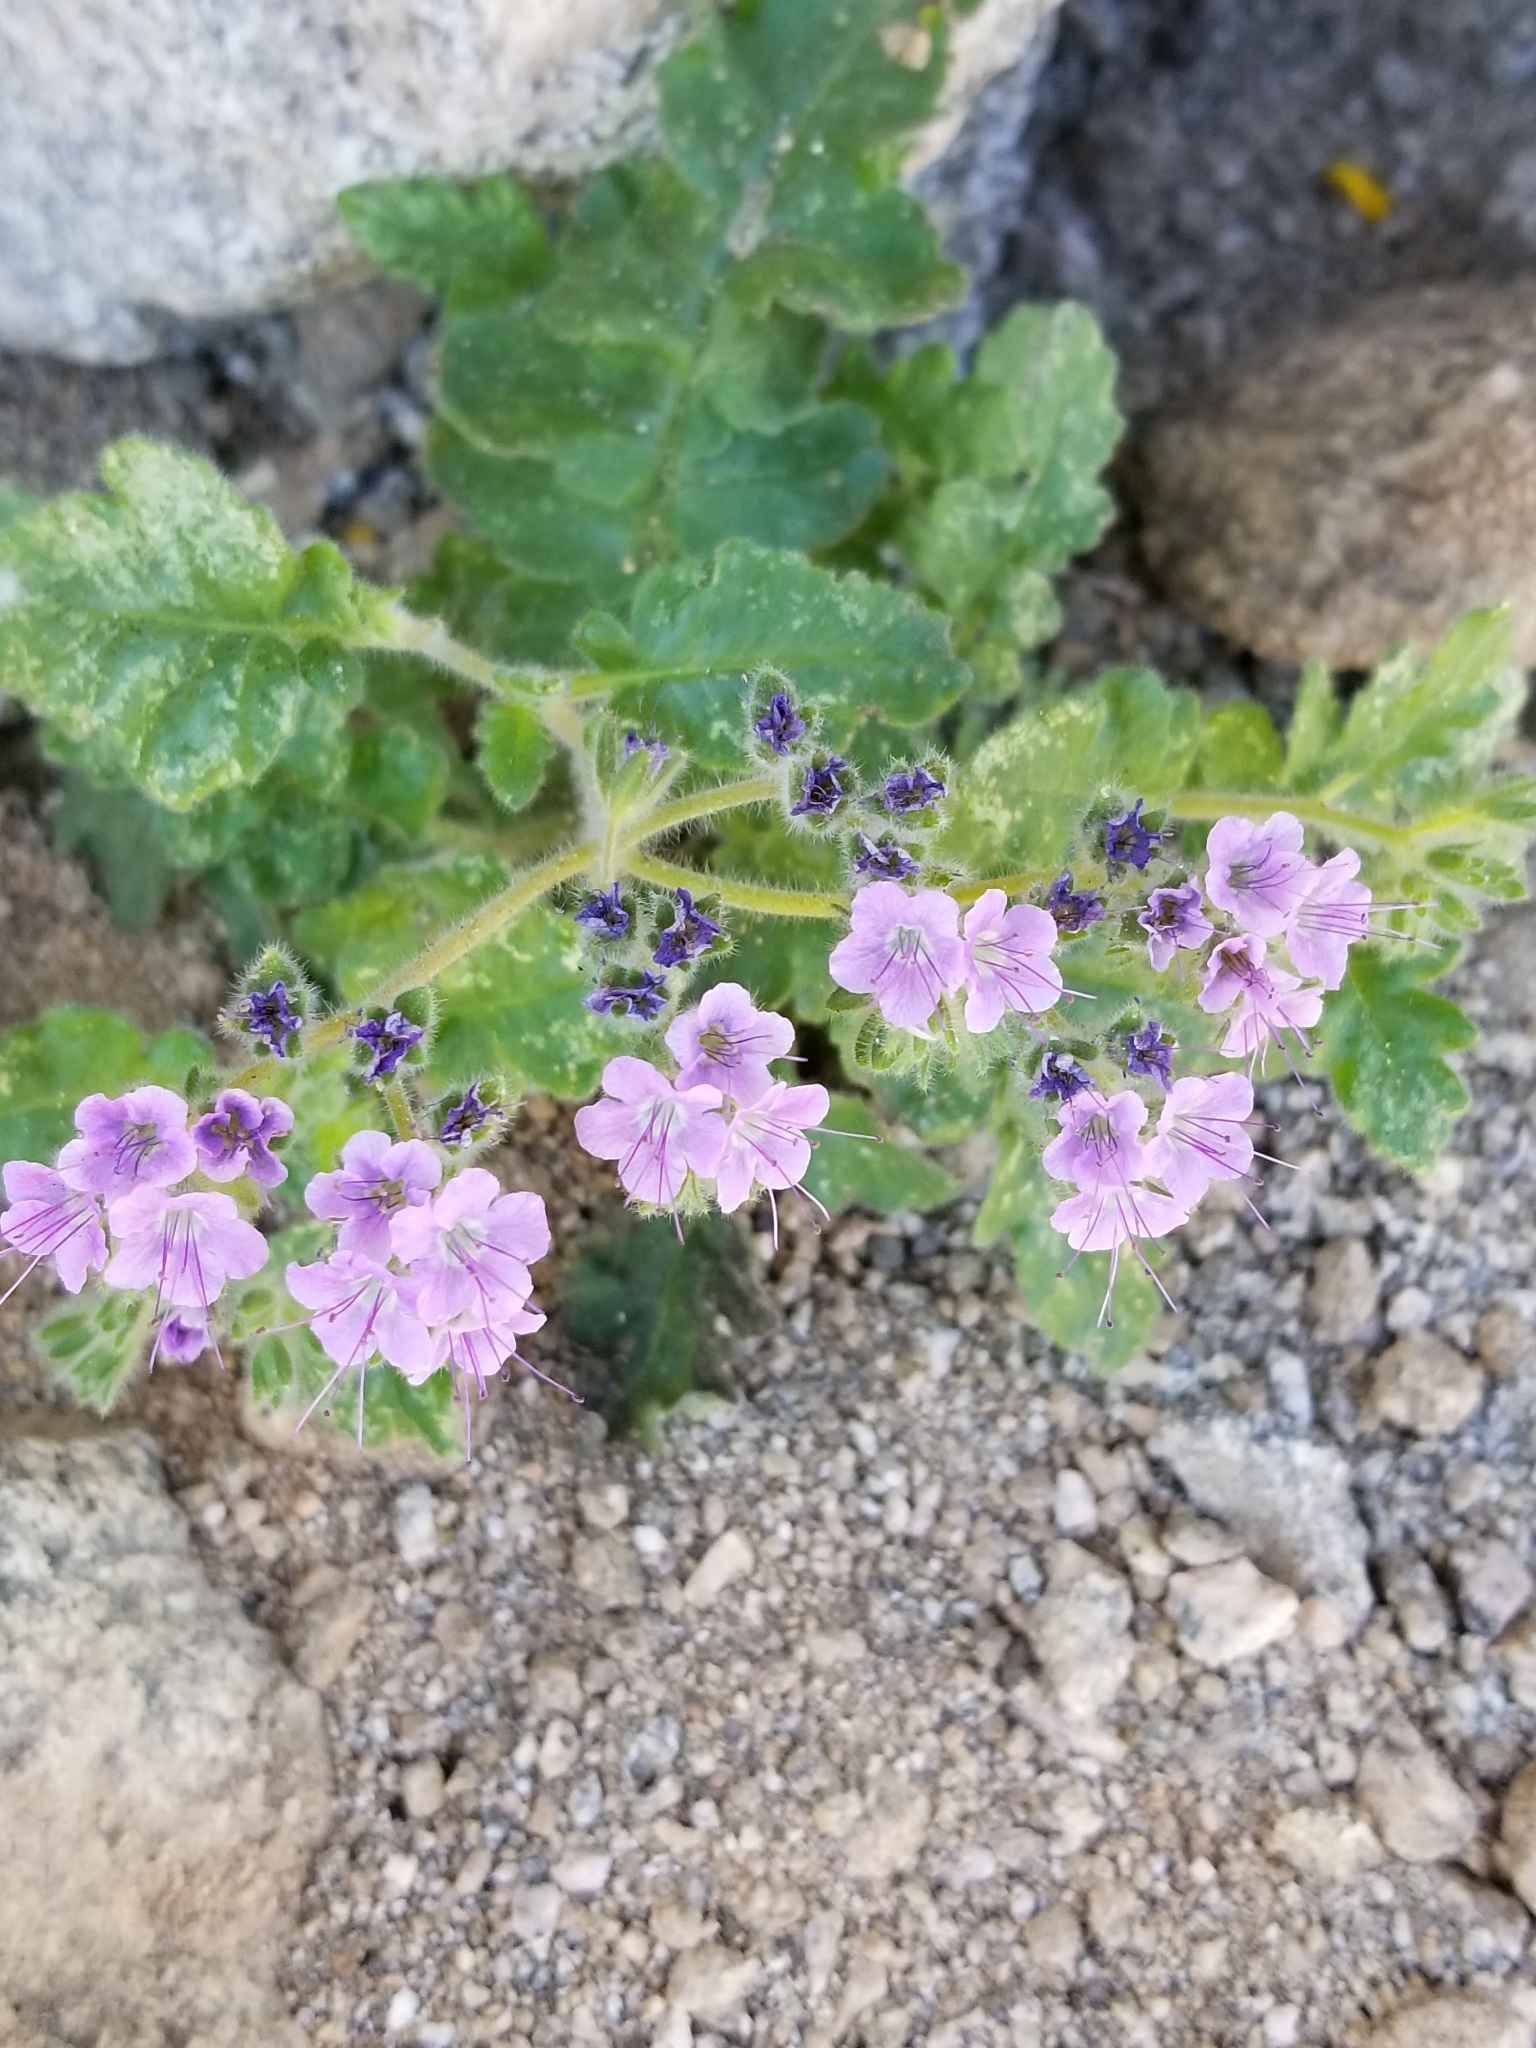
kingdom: Plantae
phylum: Tracheophyta
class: Magnoliopsida
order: Boraginales
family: Hydrophyllaceae
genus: Phacelia
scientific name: Phacelia crenulata
